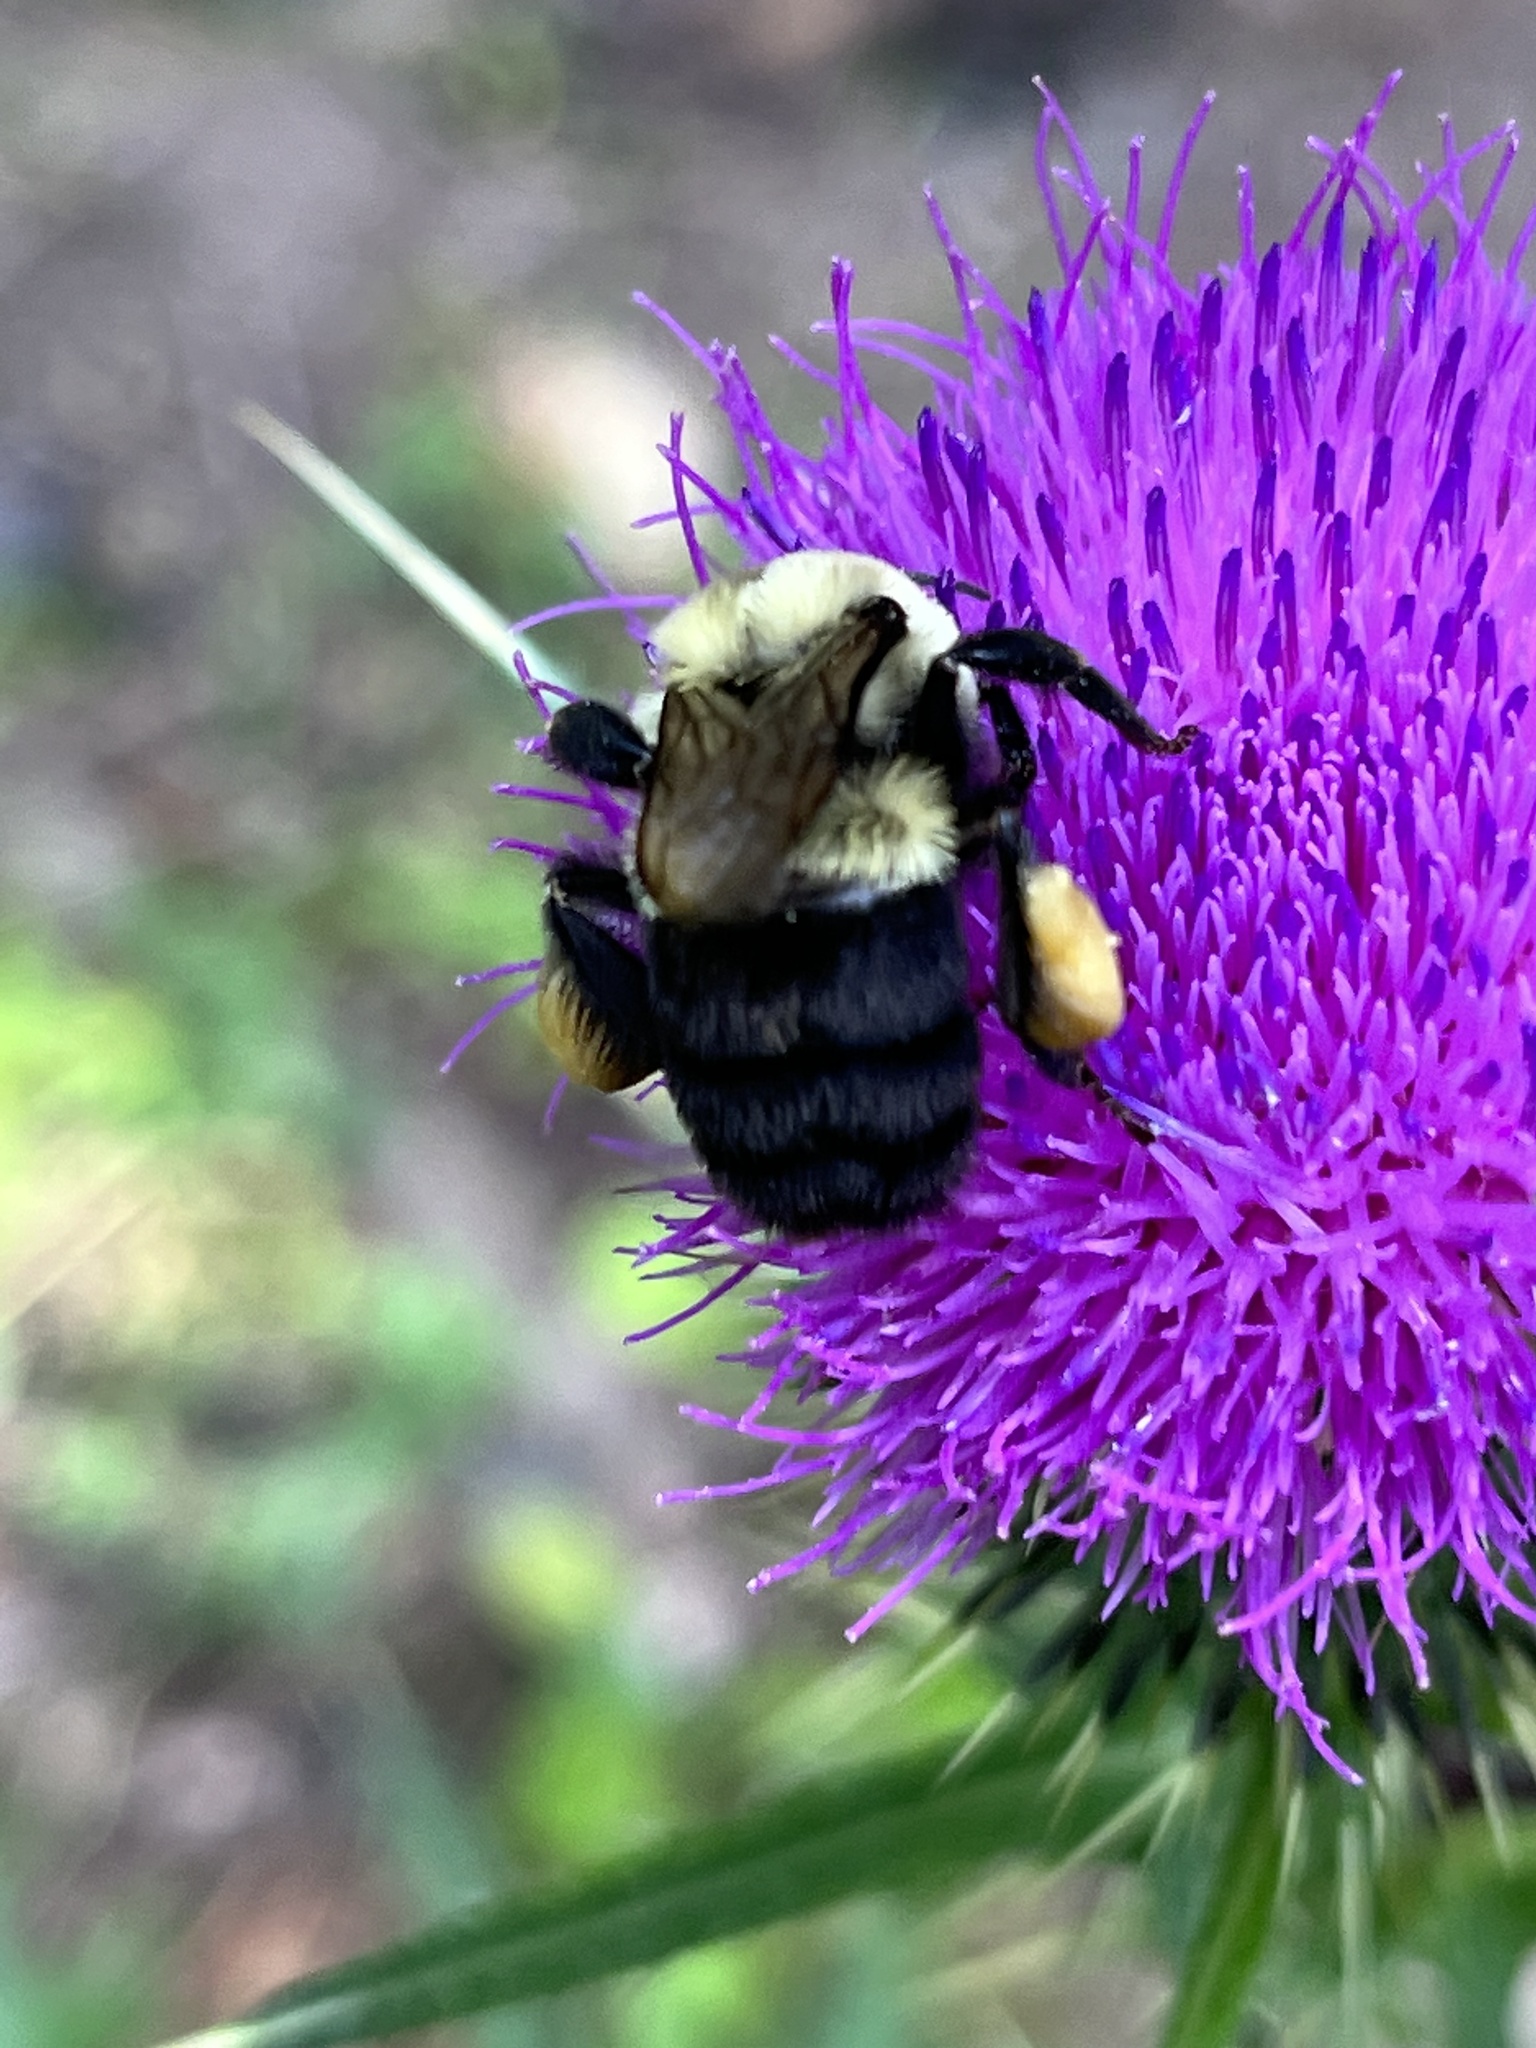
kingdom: Animalia
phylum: Arthropoda
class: Insecta
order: Hymenoptera
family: Apidae
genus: Bombus
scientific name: Bombus impatiens
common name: Common eastern bumble bee
